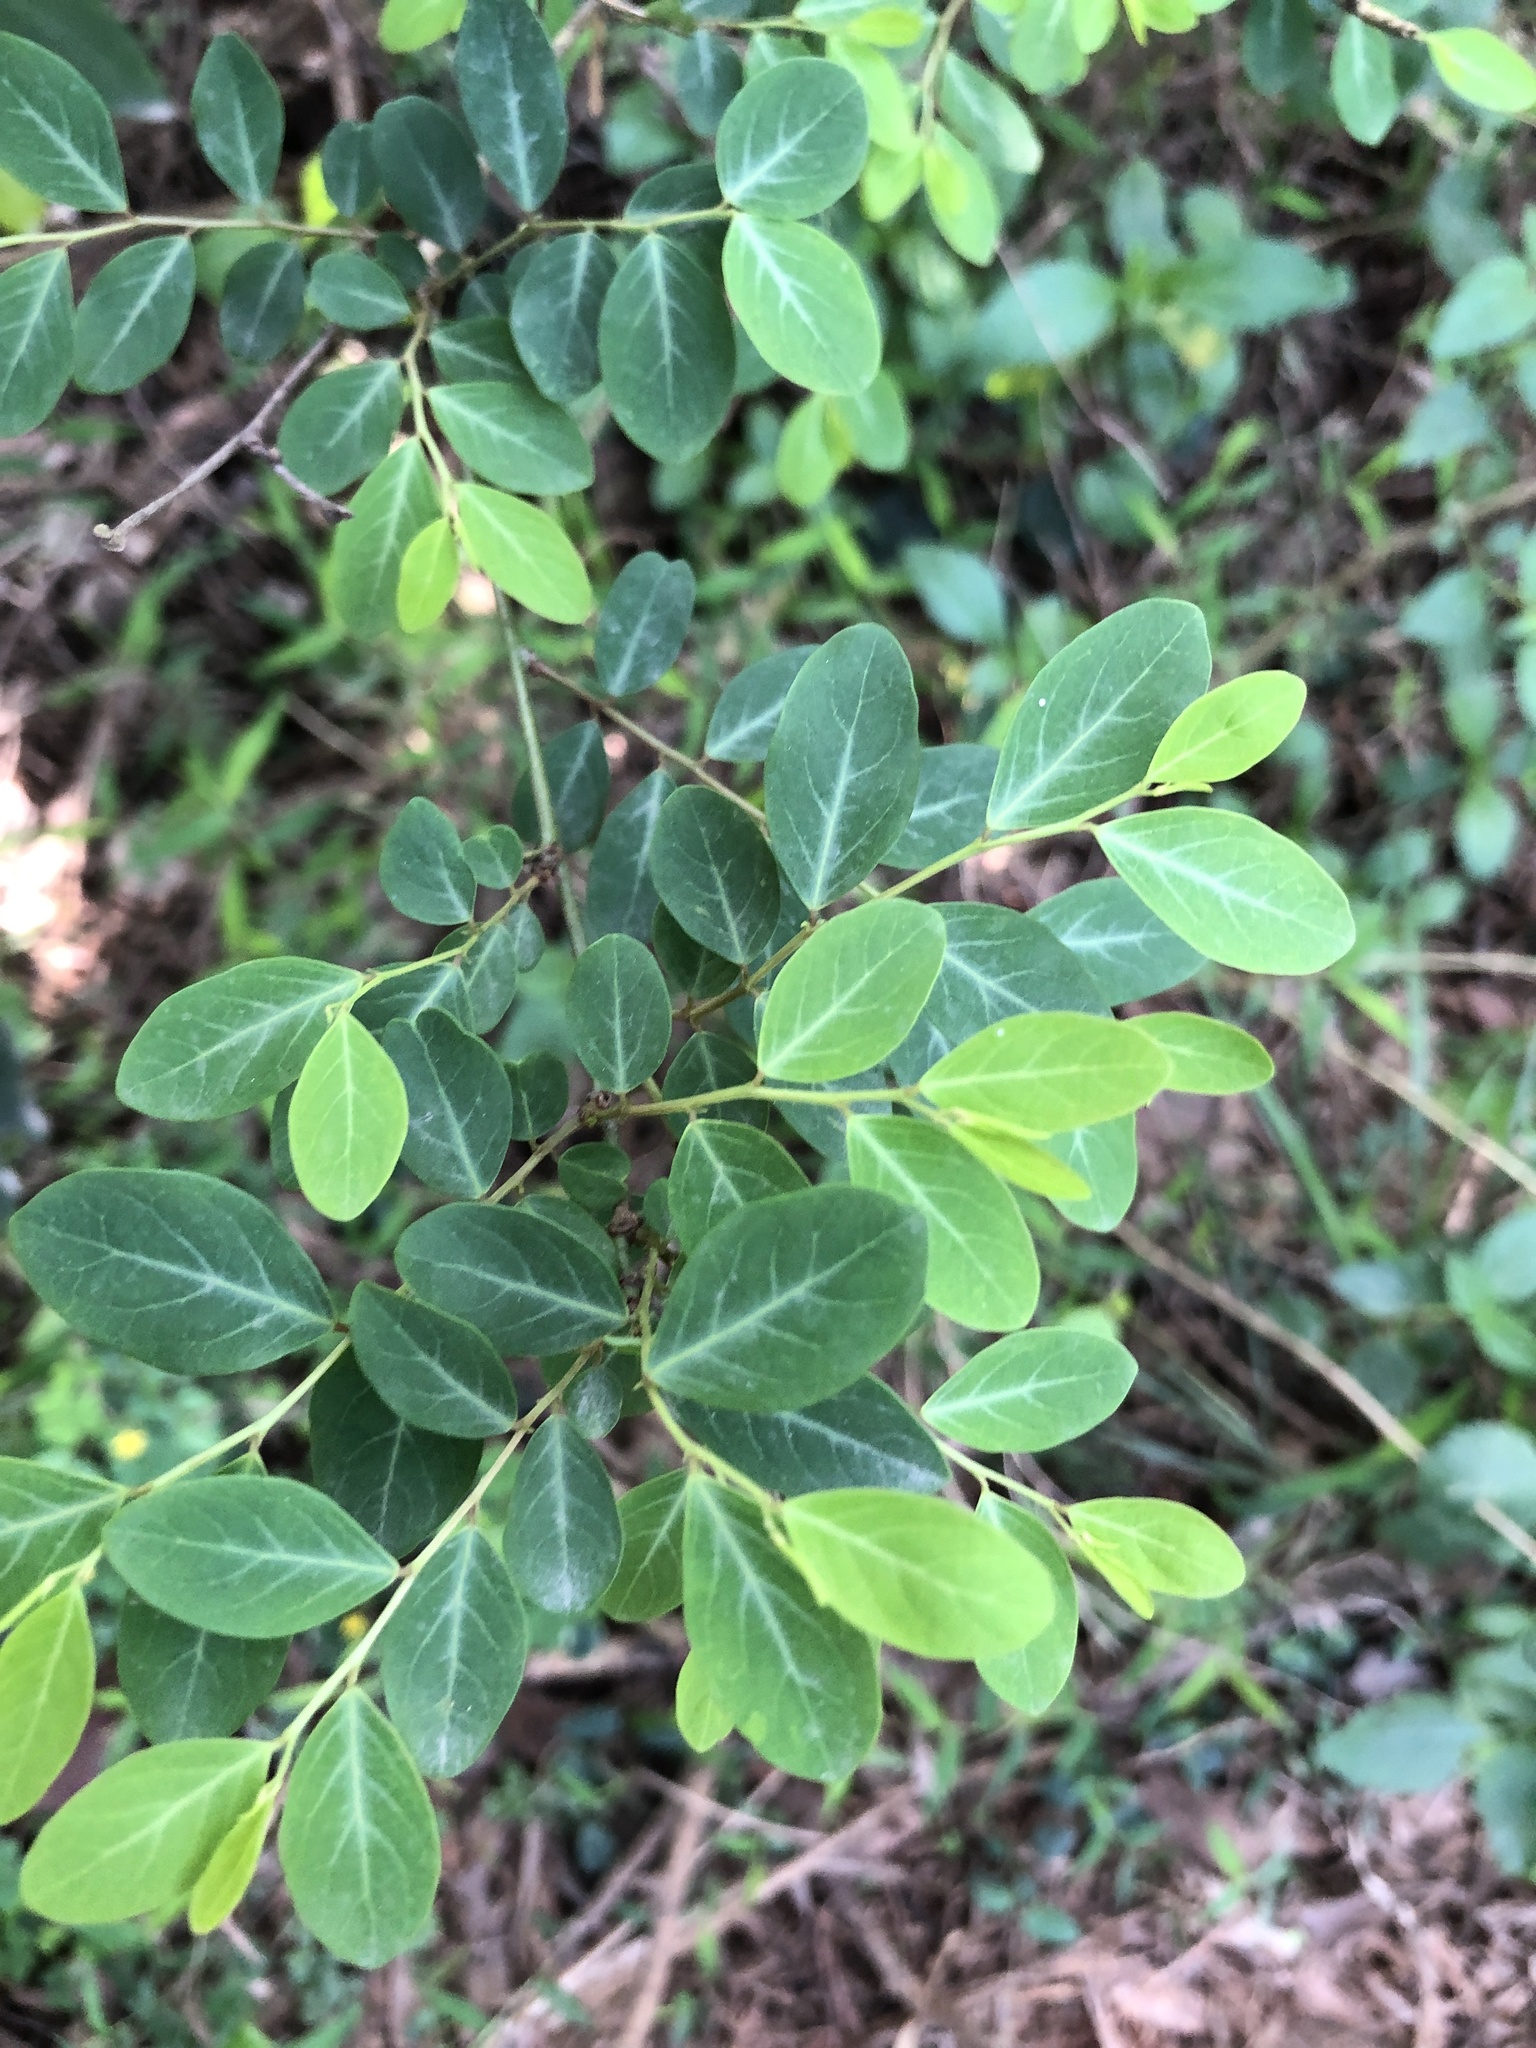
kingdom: Plantae
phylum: Tracheophyta
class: Magnoliopsida
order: Malpighiales
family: Phyllanthaceae
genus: Breynia
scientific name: Breynia vitis-idaea
